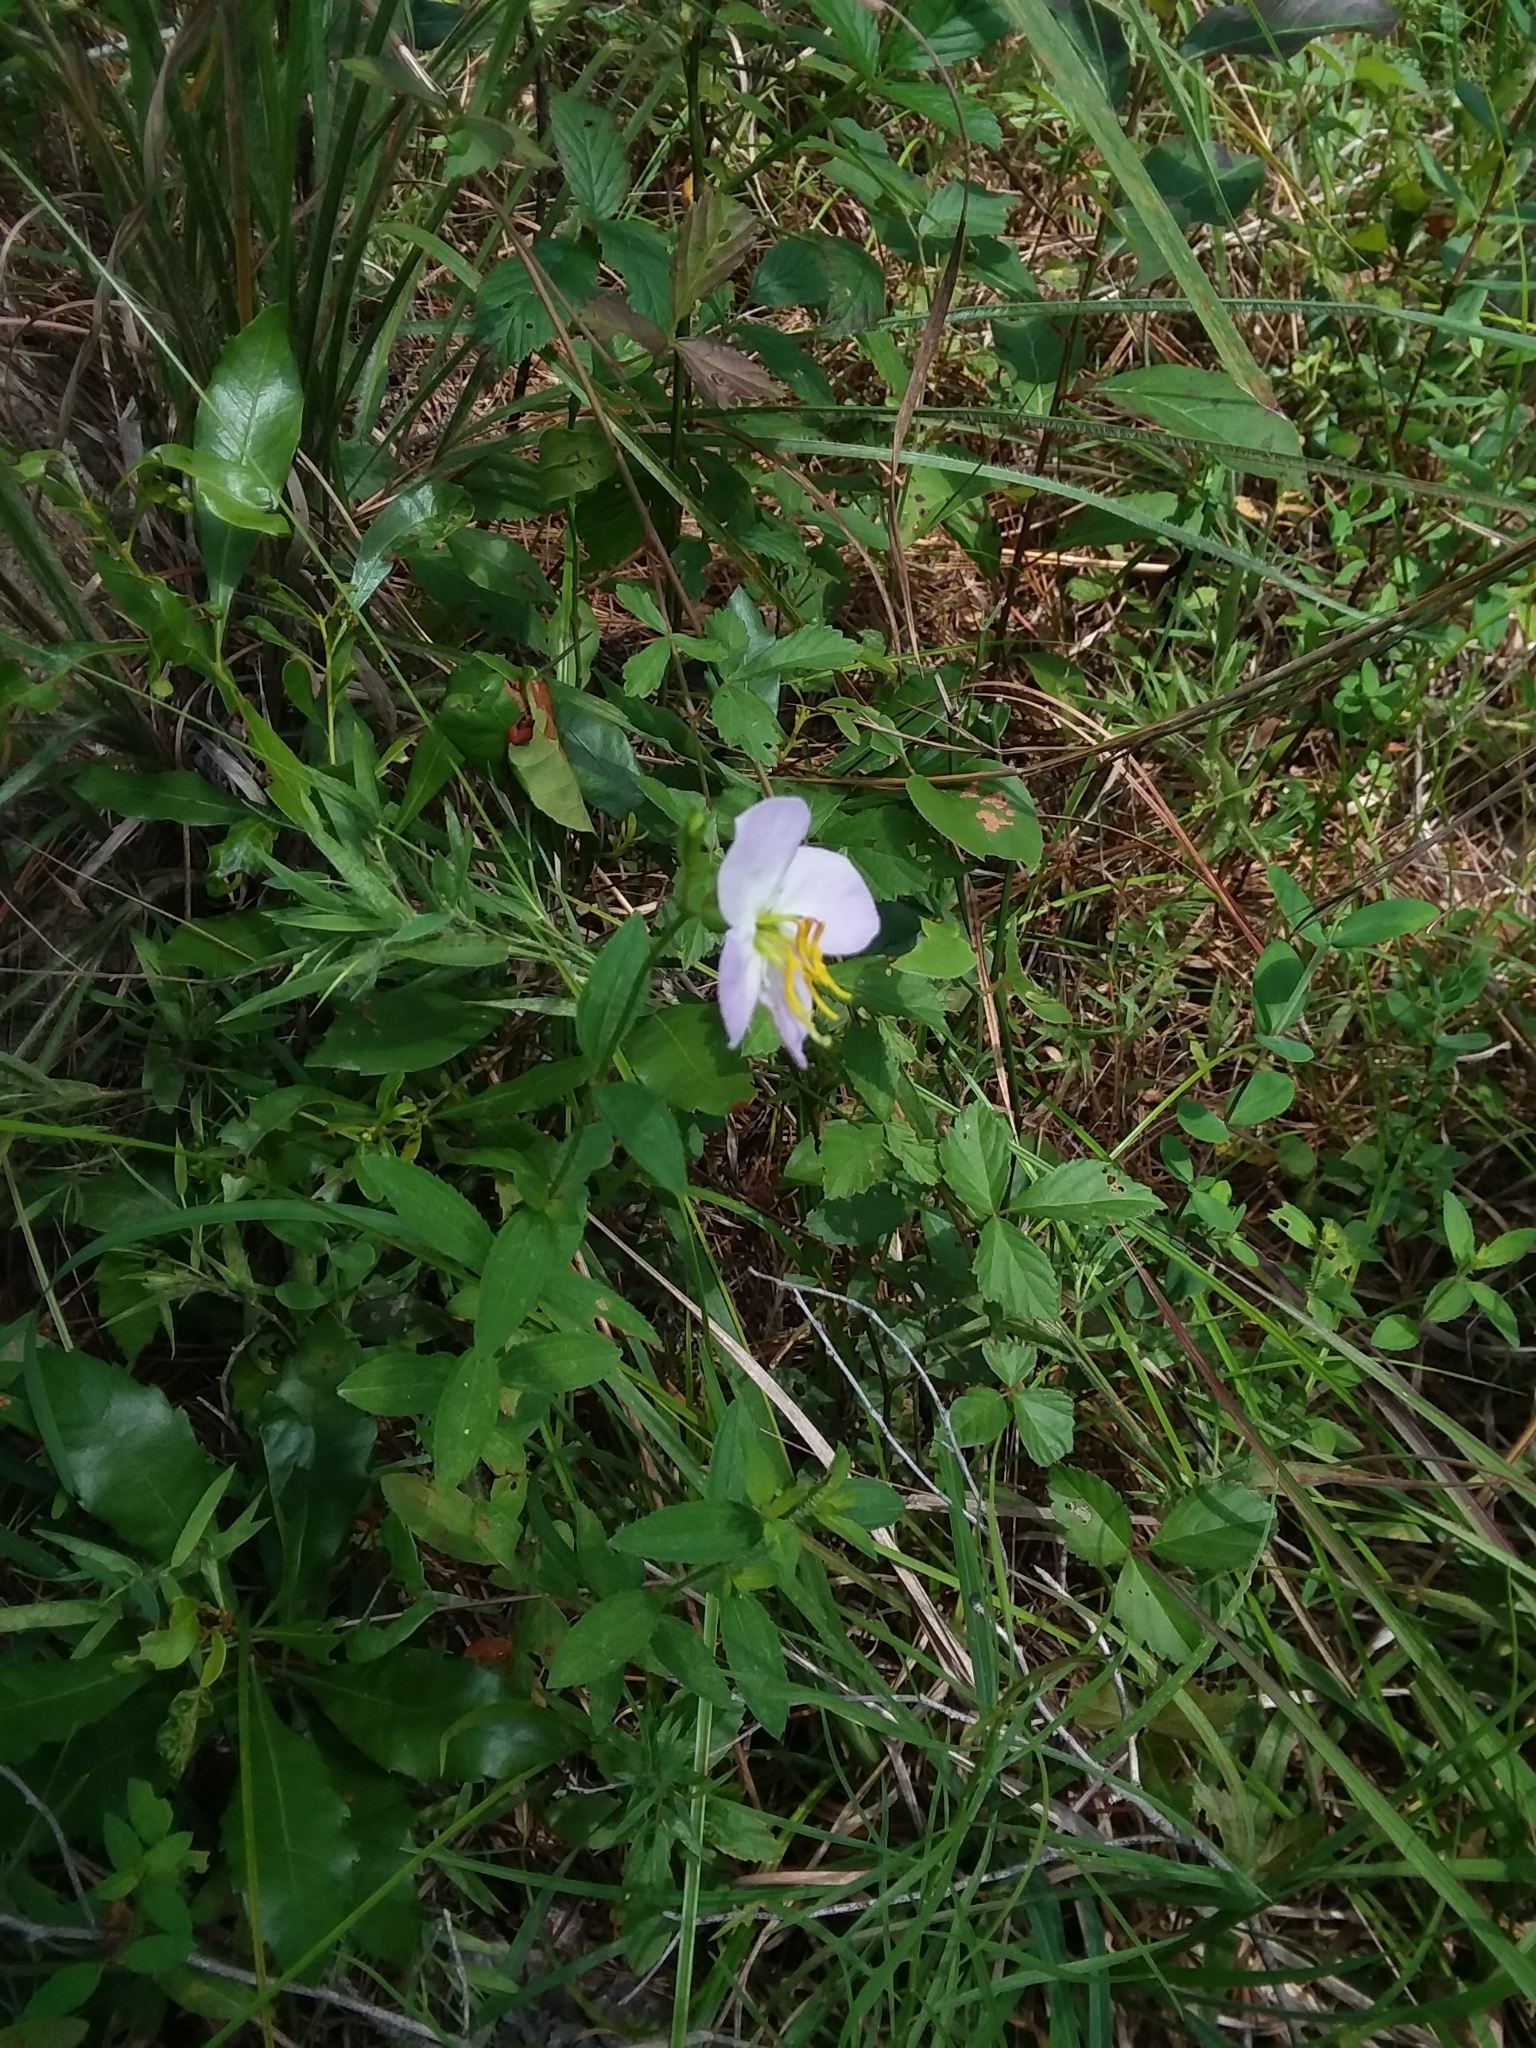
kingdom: Plantae
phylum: Tracheophyta
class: Magnoliopsida
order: Myrtales
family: Melastomataceae
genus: Rhexia
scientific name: Rhexia mariana
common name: Dull meadow-pitcher
